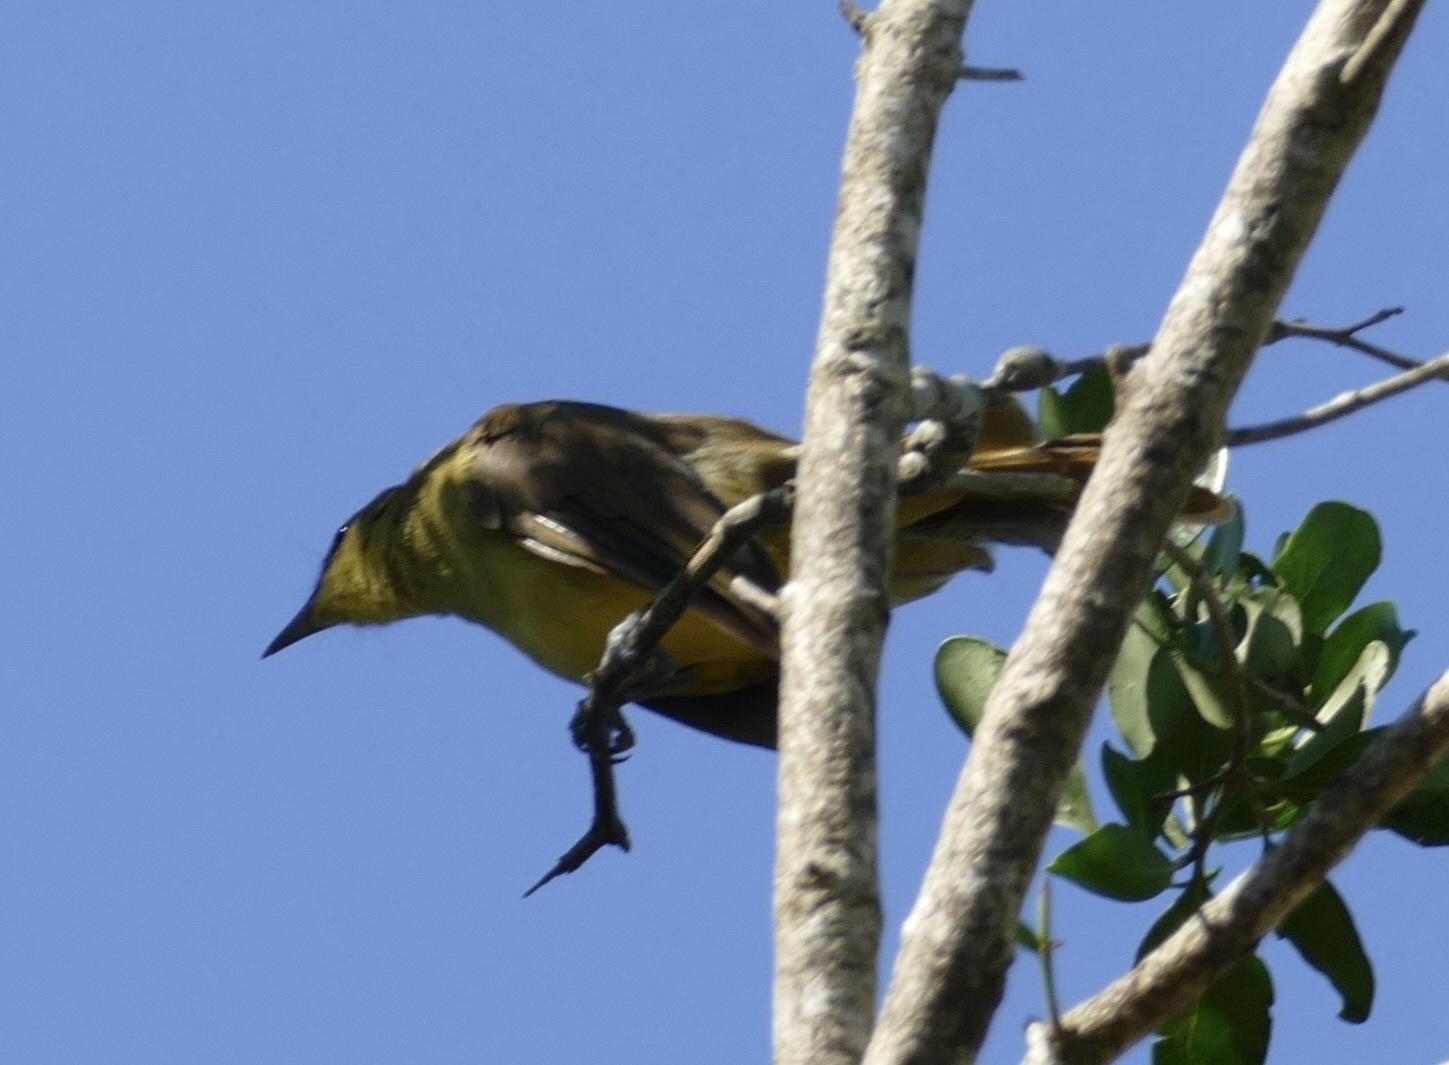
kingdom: Animalia
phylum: Chordata
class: Aves
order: Passeriformes
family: Pycnonotidae
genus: Chlorocichla
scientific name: Chlorocichla flaviventris
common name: Yellow-bellied greenbul
